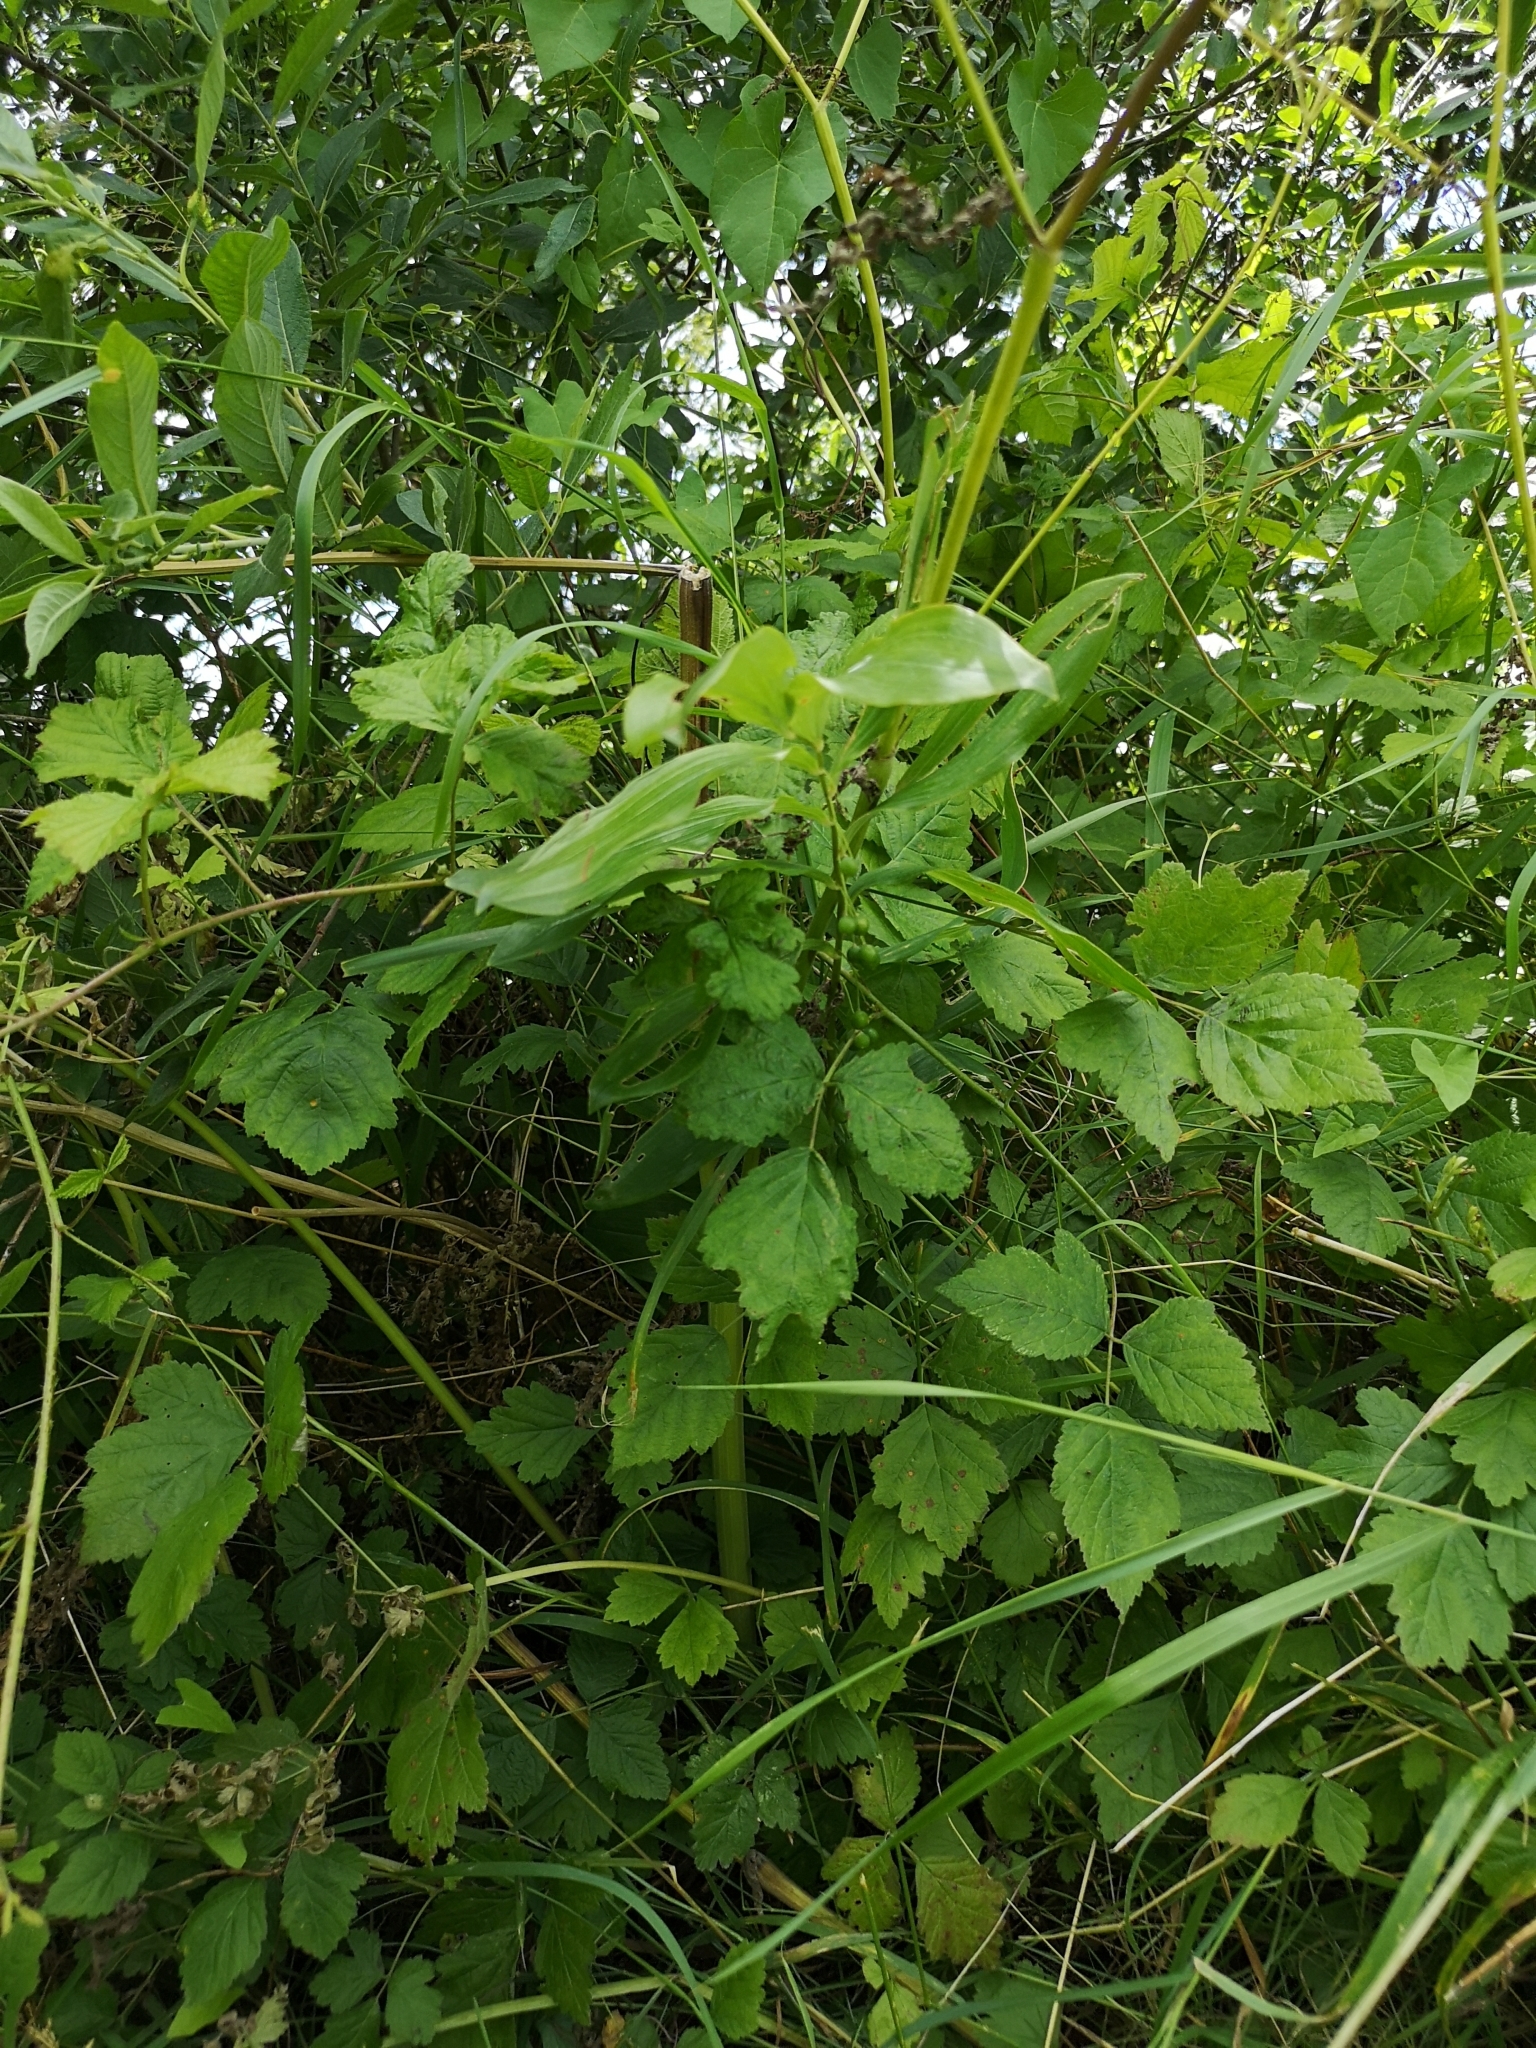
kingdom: Plantae
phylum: Tracheophyta
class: Liliopsida
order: Asparagales
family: Asparagaceae
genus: Polygonatum
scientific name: Polygonatum multiflorum
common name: Solomon's-seal
